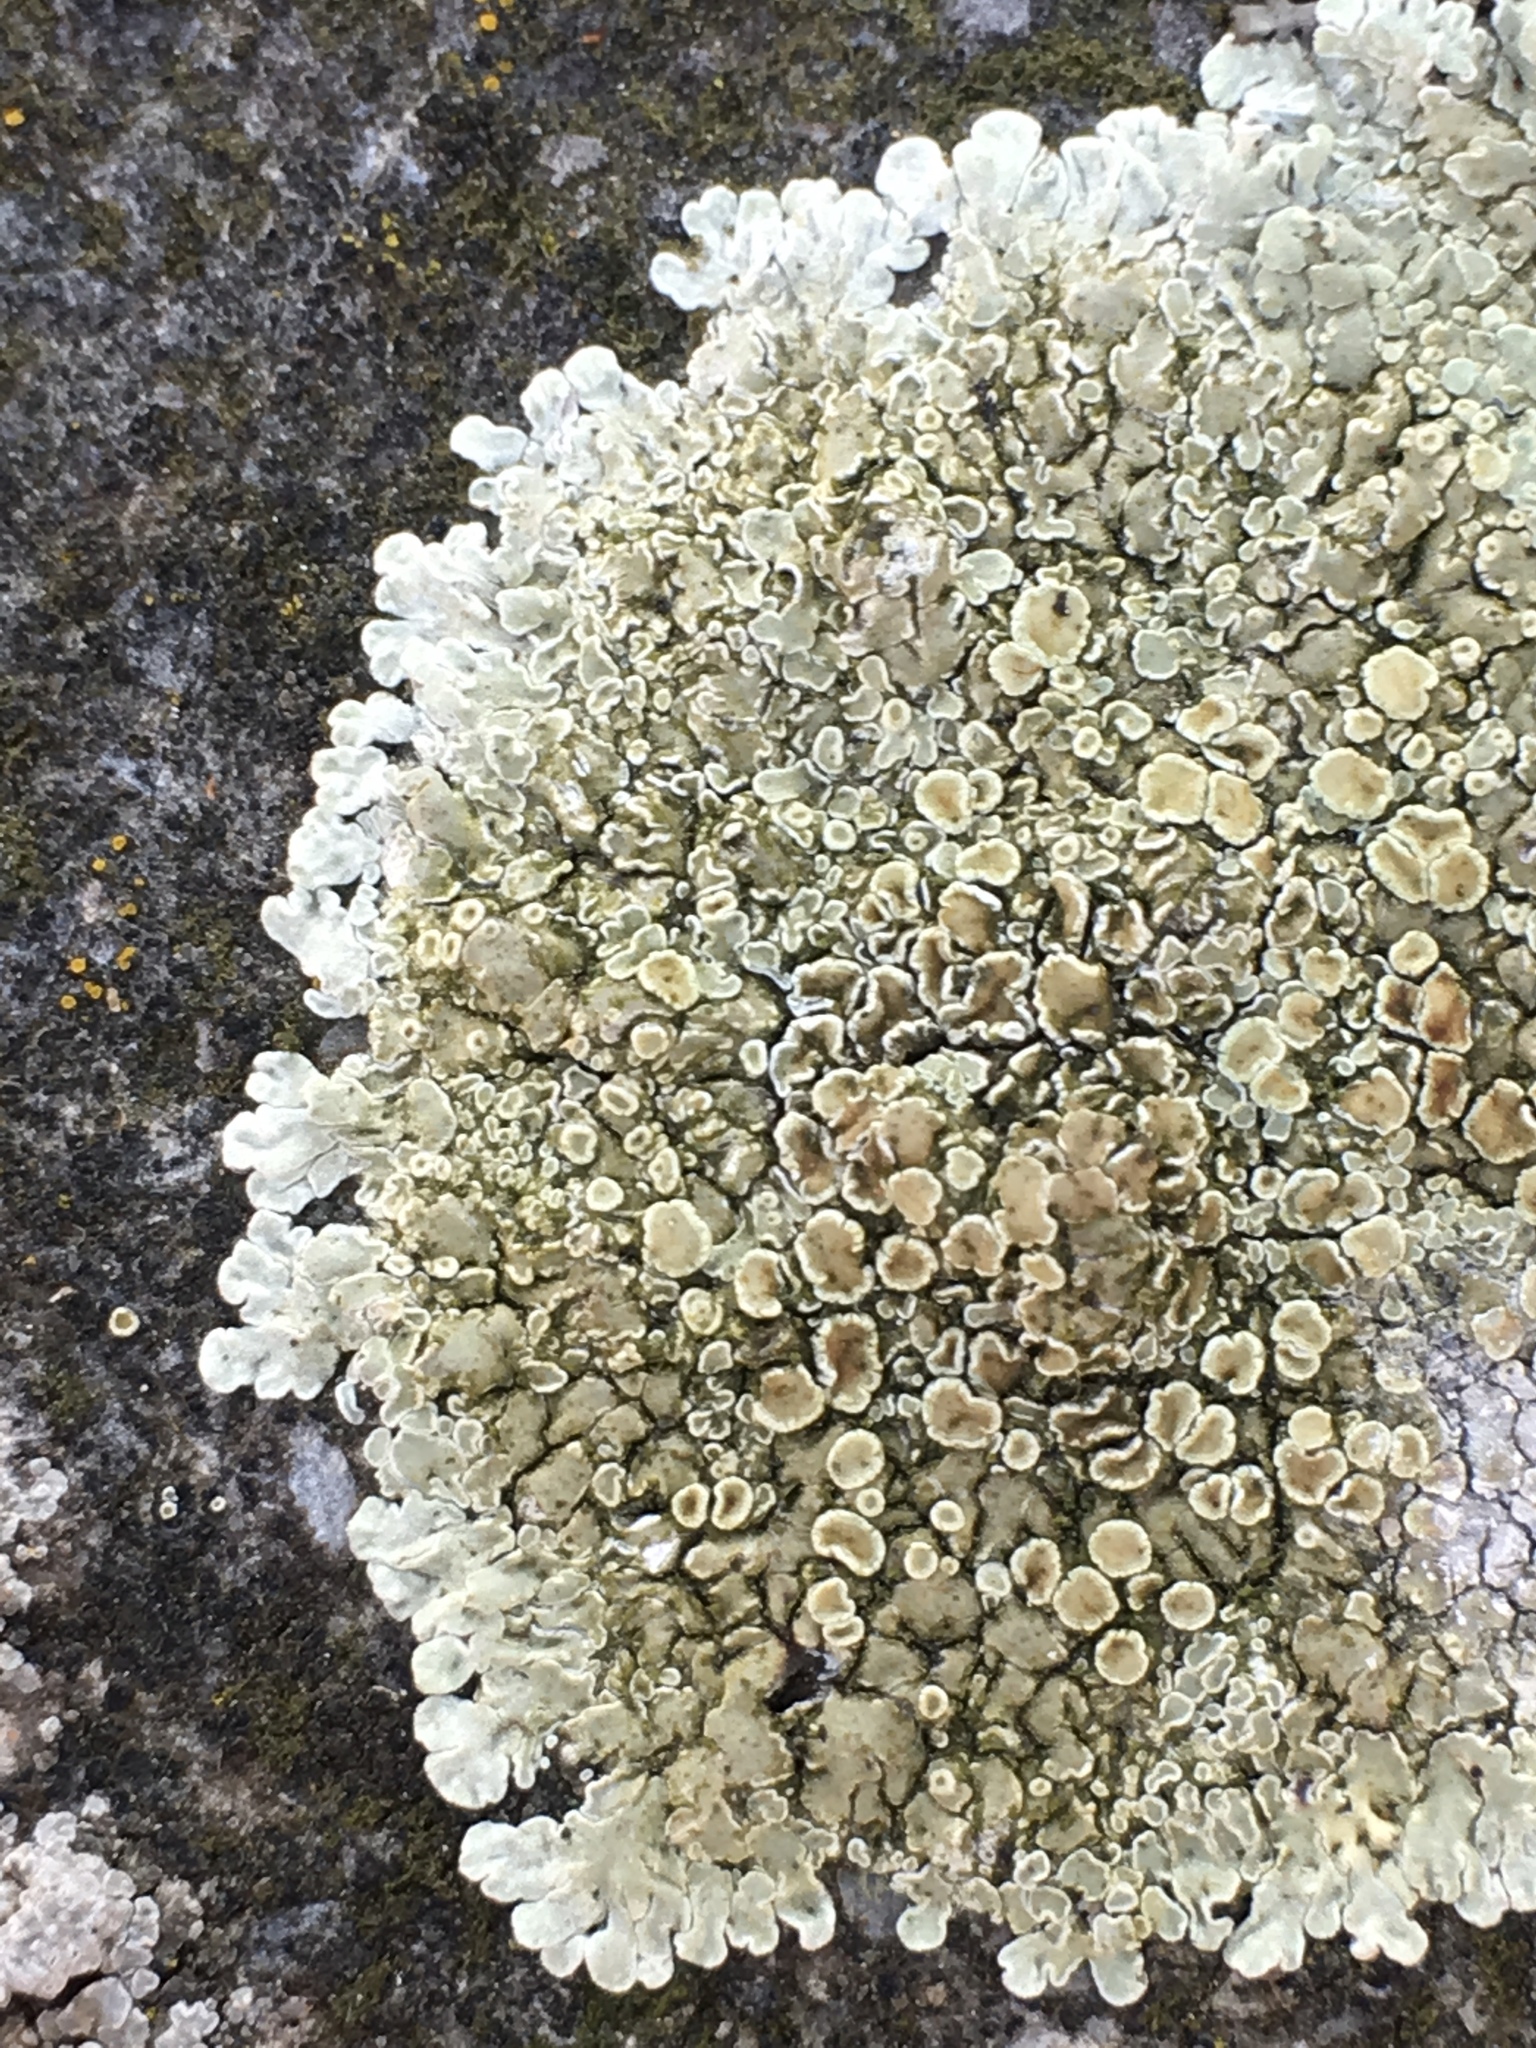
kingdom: Fungi
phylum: Ascomycota
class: Lecanoromycetes
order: Lecanorales
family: Lecanoraceae
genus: Protoparmeliopsis
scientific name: Protoparmeliopsis muralis
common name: Stonewall rim lichen
